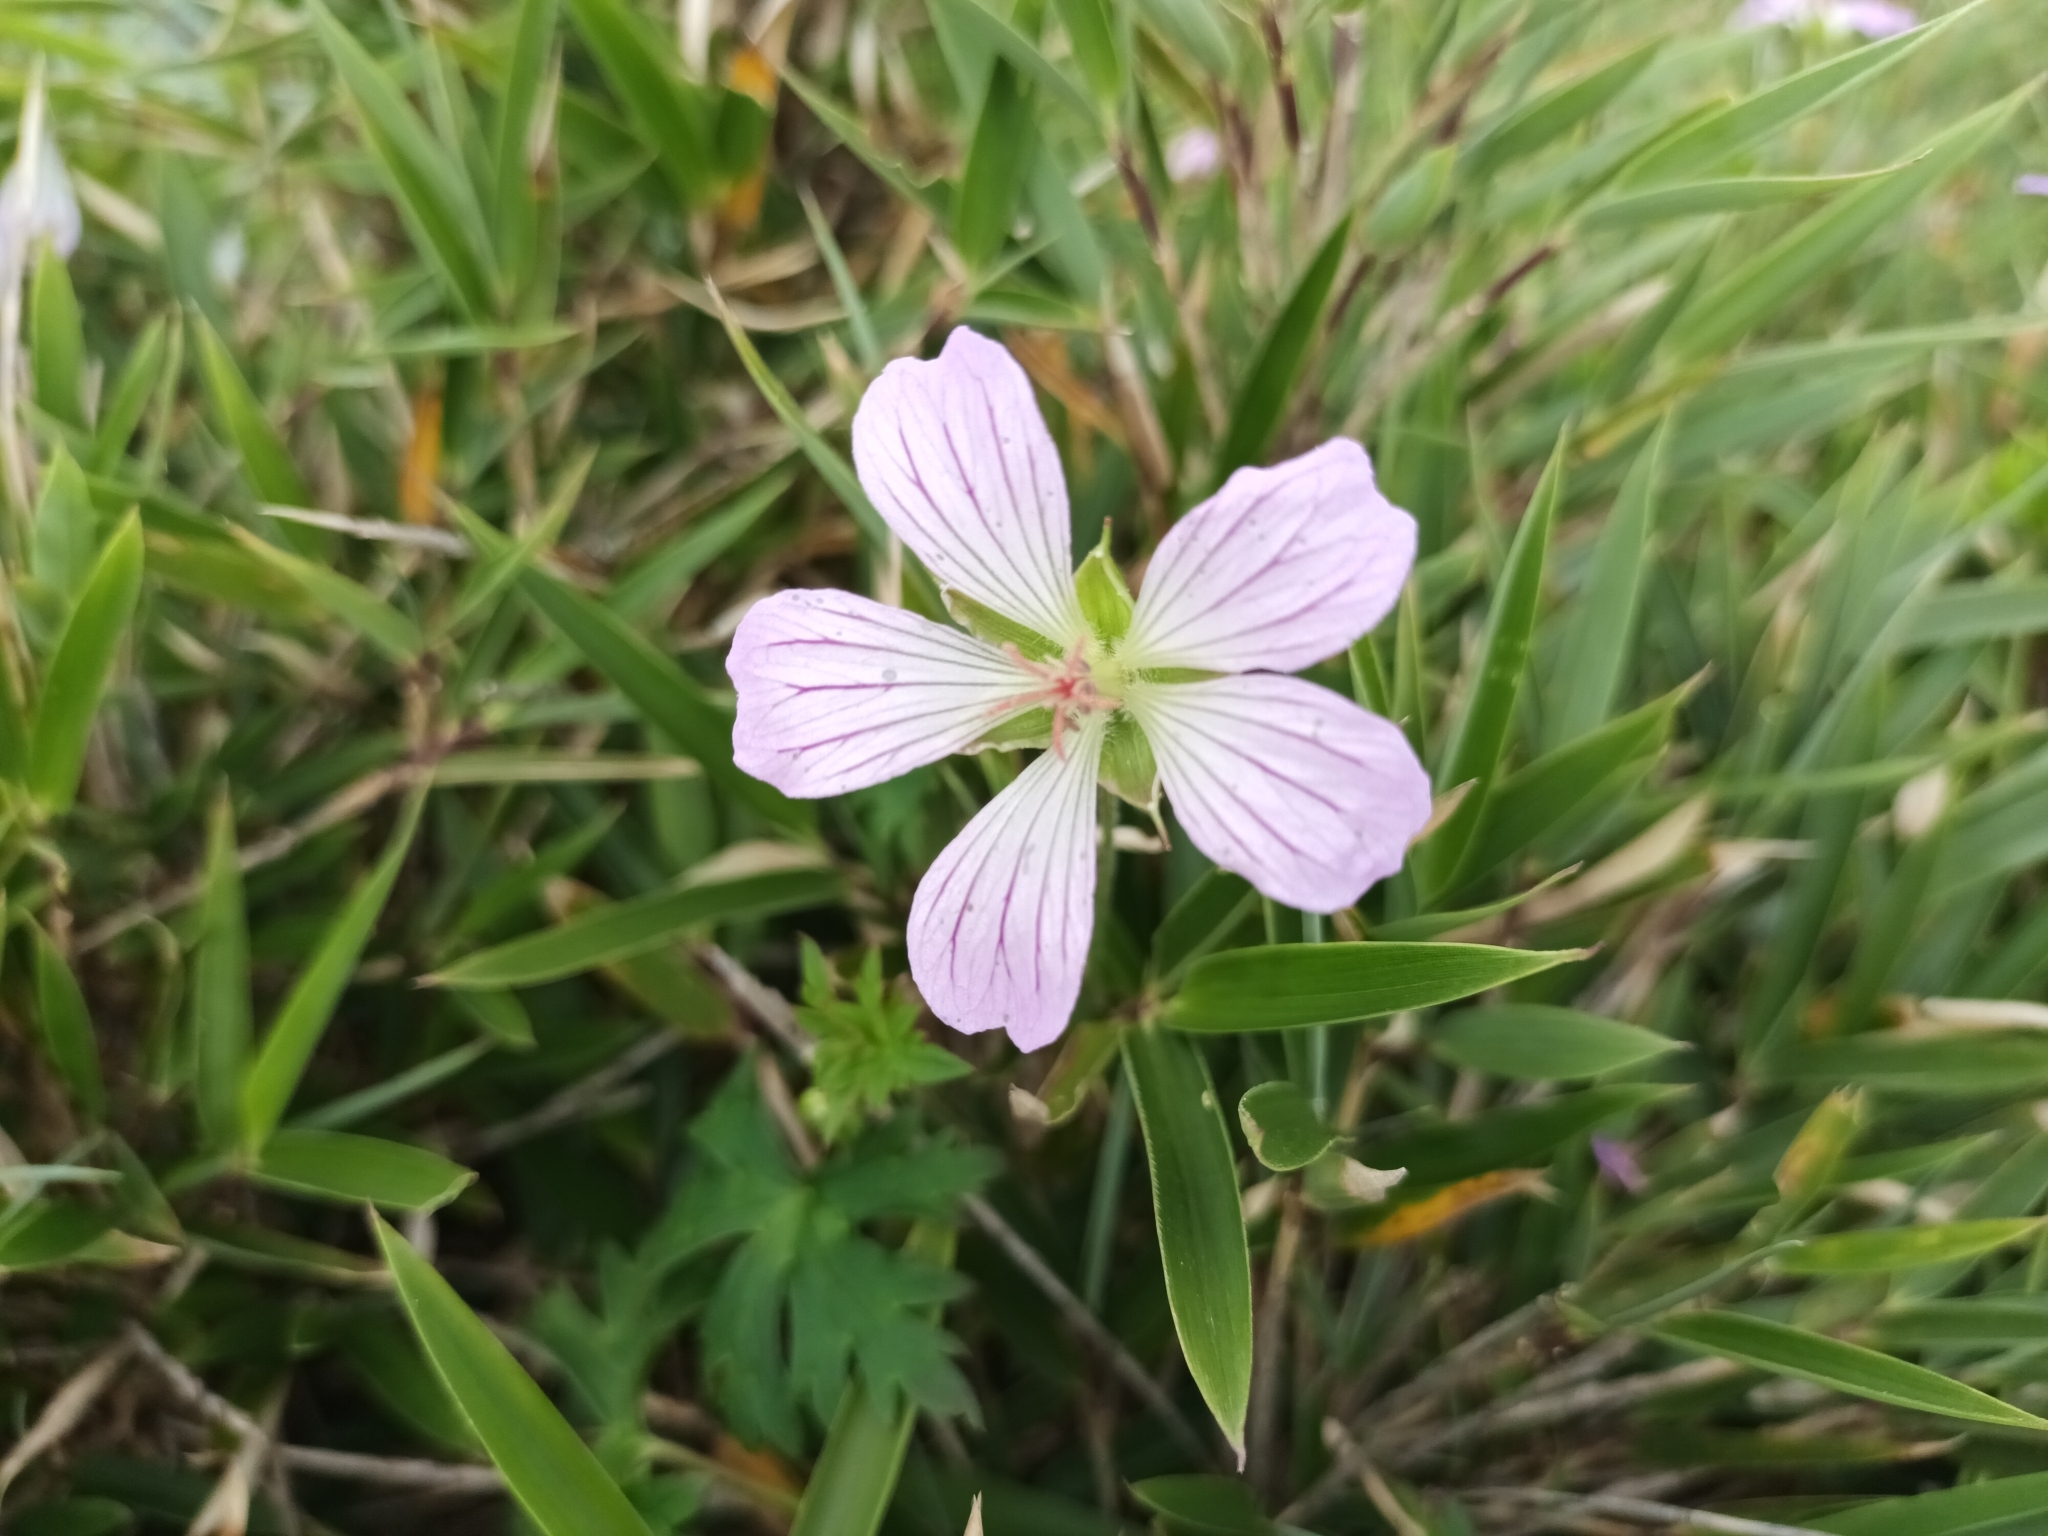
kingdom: Plantae
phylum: Tracheophyta
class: Magnoliopsida
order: Geraniales
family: Geraniaceae
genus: Geranium
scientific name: Geranium hayatanum
